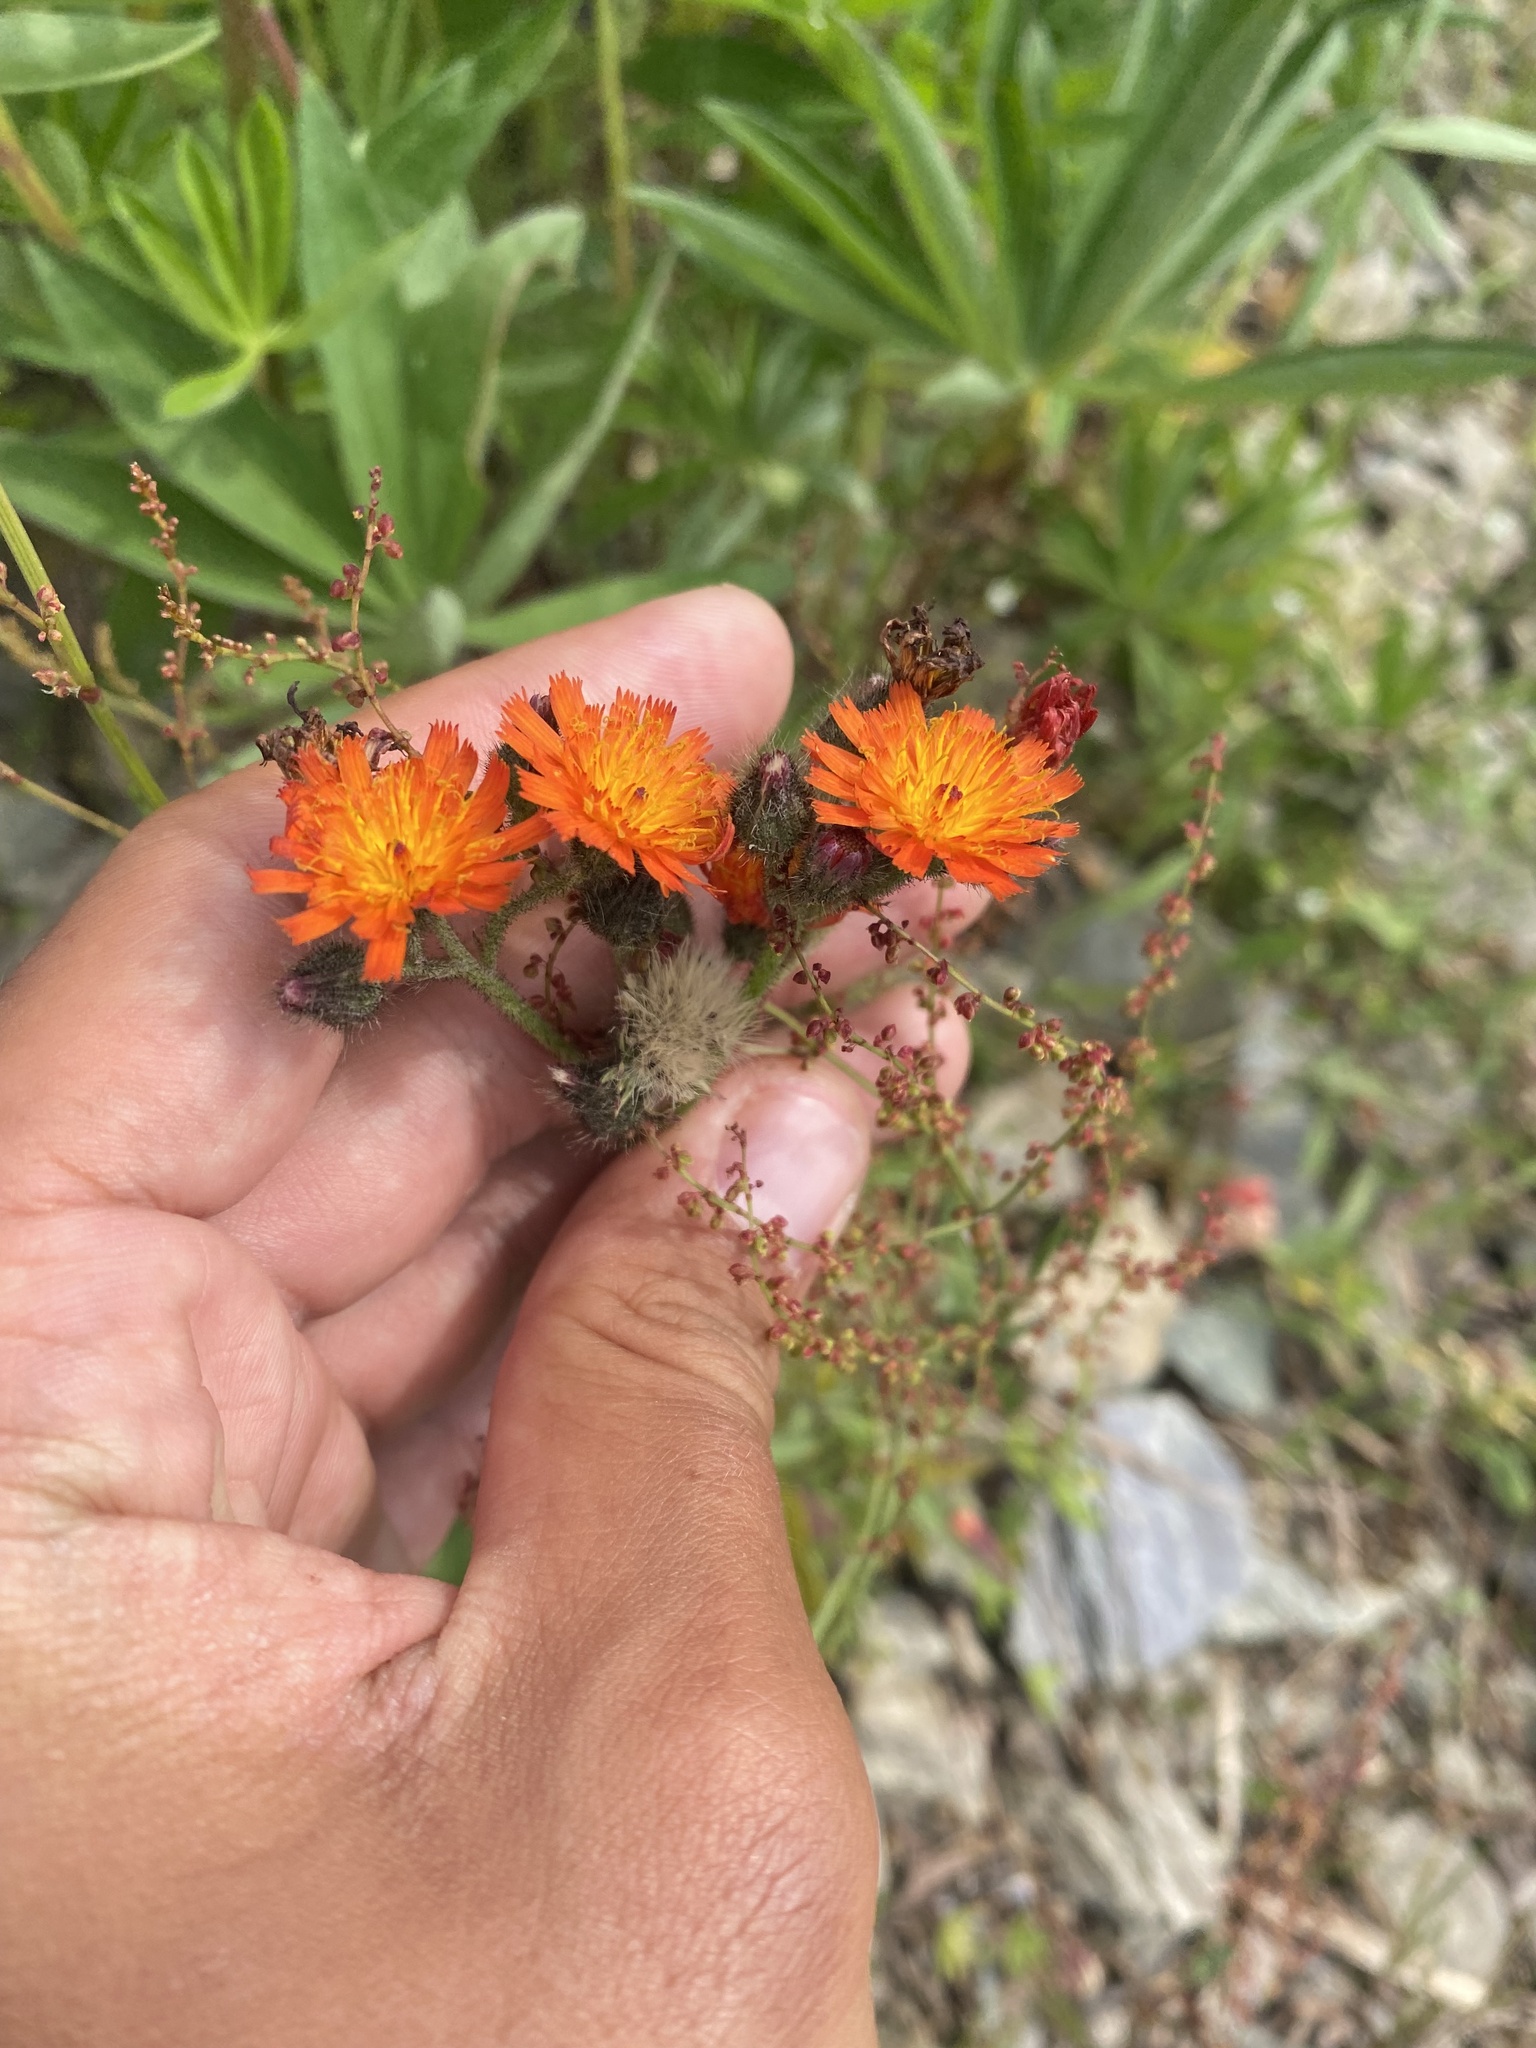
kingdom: Plantae
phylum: Tracheophyta
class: Magnoliopsida
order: Asterales
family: Asteraceae
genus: Pilosella
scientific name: Pilosella aurantiaca
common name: Fox-and-cubs
